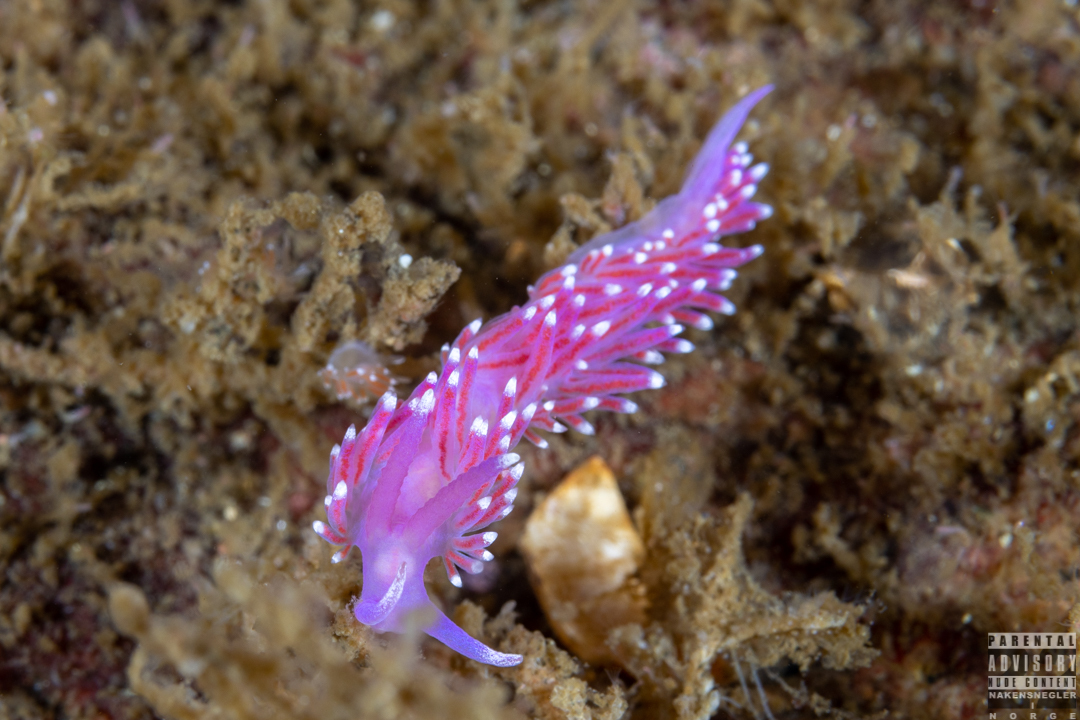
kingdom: Animalia
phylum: Mollusca
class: Gastropoda
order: Nudibranchia
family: Flabellinidae
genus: Edmundsella
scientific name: Edmundsella pedata
